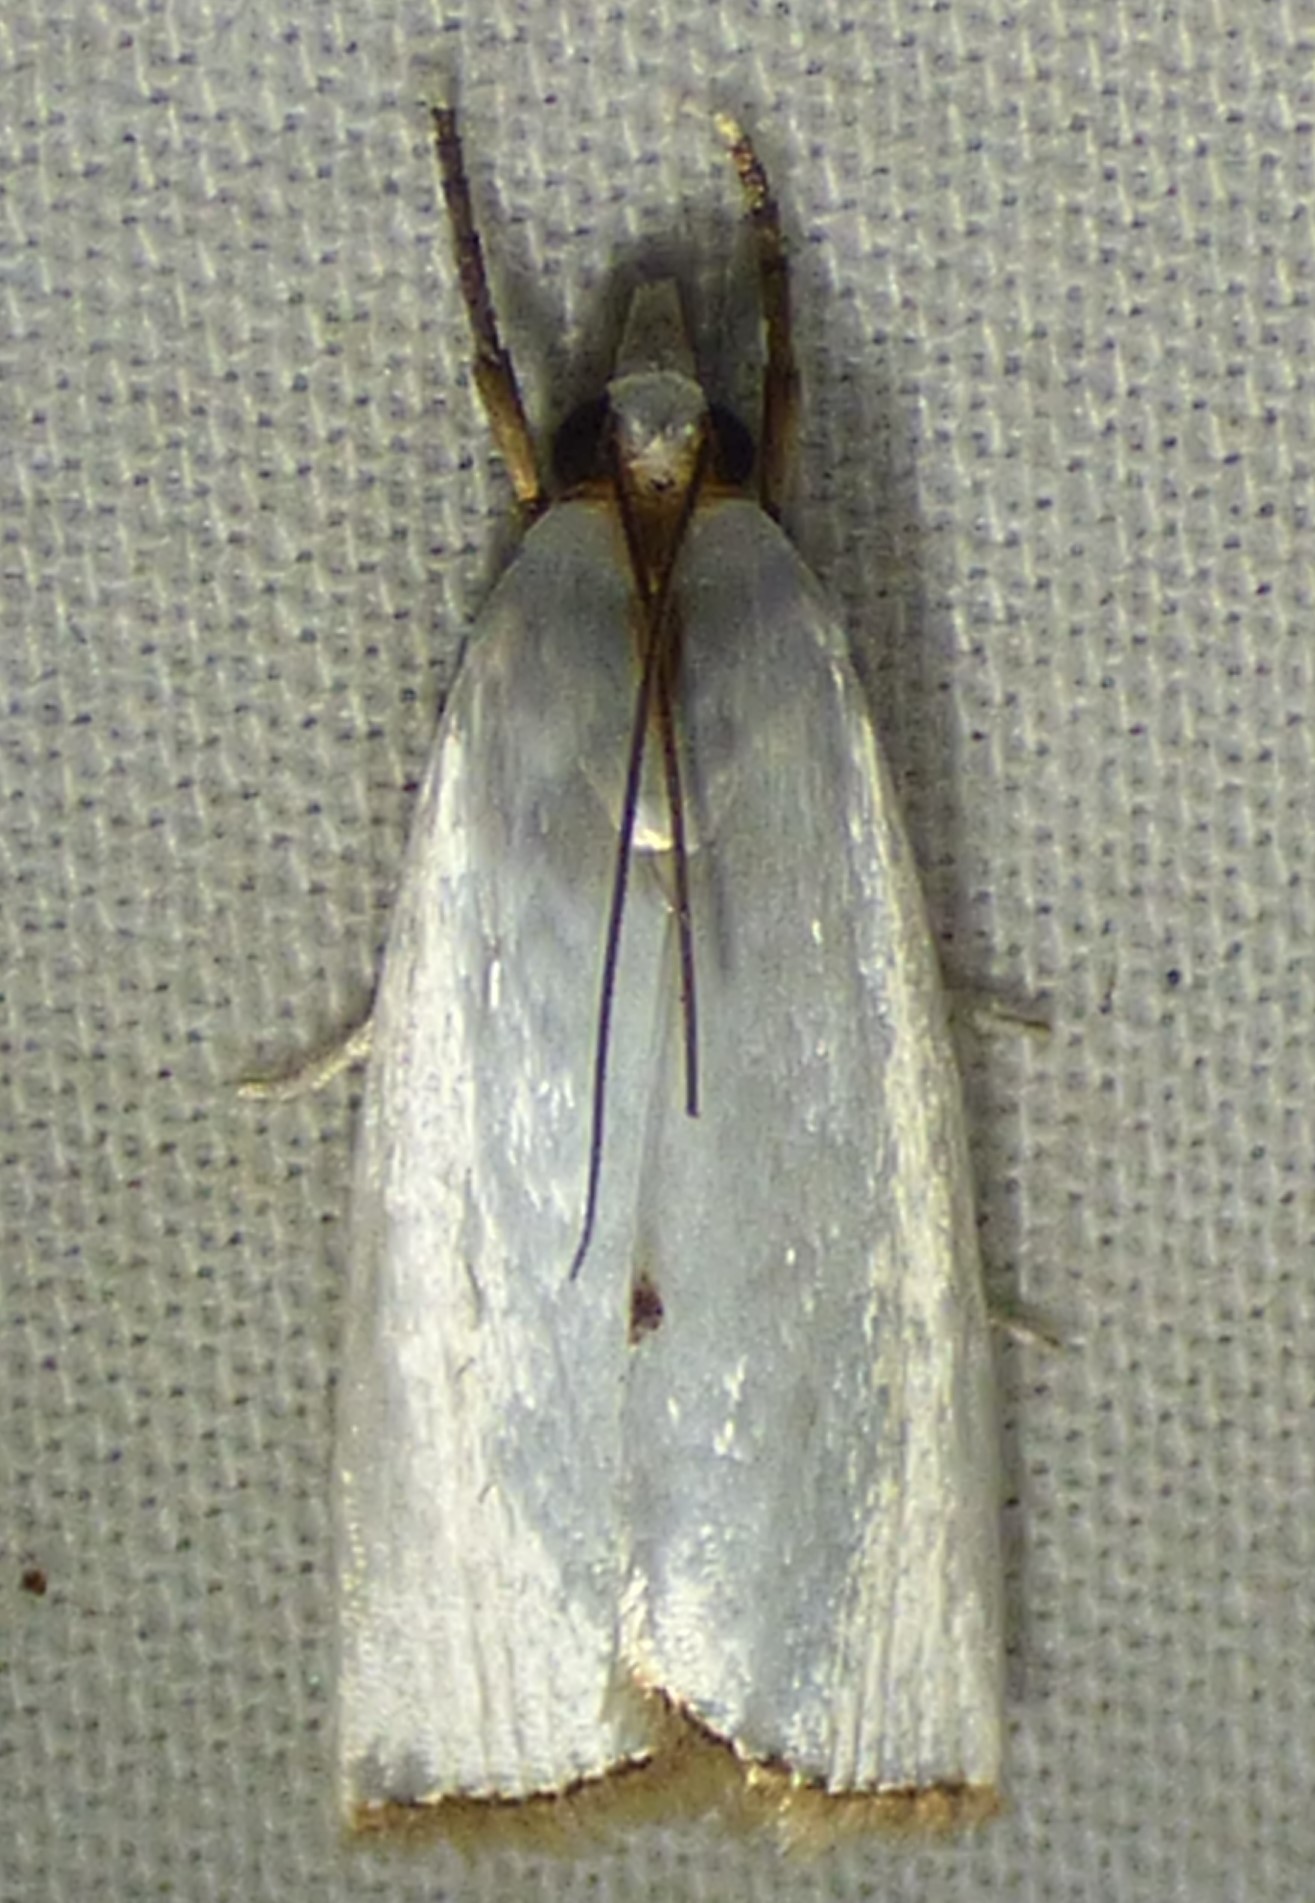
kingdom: Animalia
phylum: Arthropoda
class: Insecta
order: Lepidoptera
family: Crambidae
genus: Argyria
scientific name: Argyria nivalis
